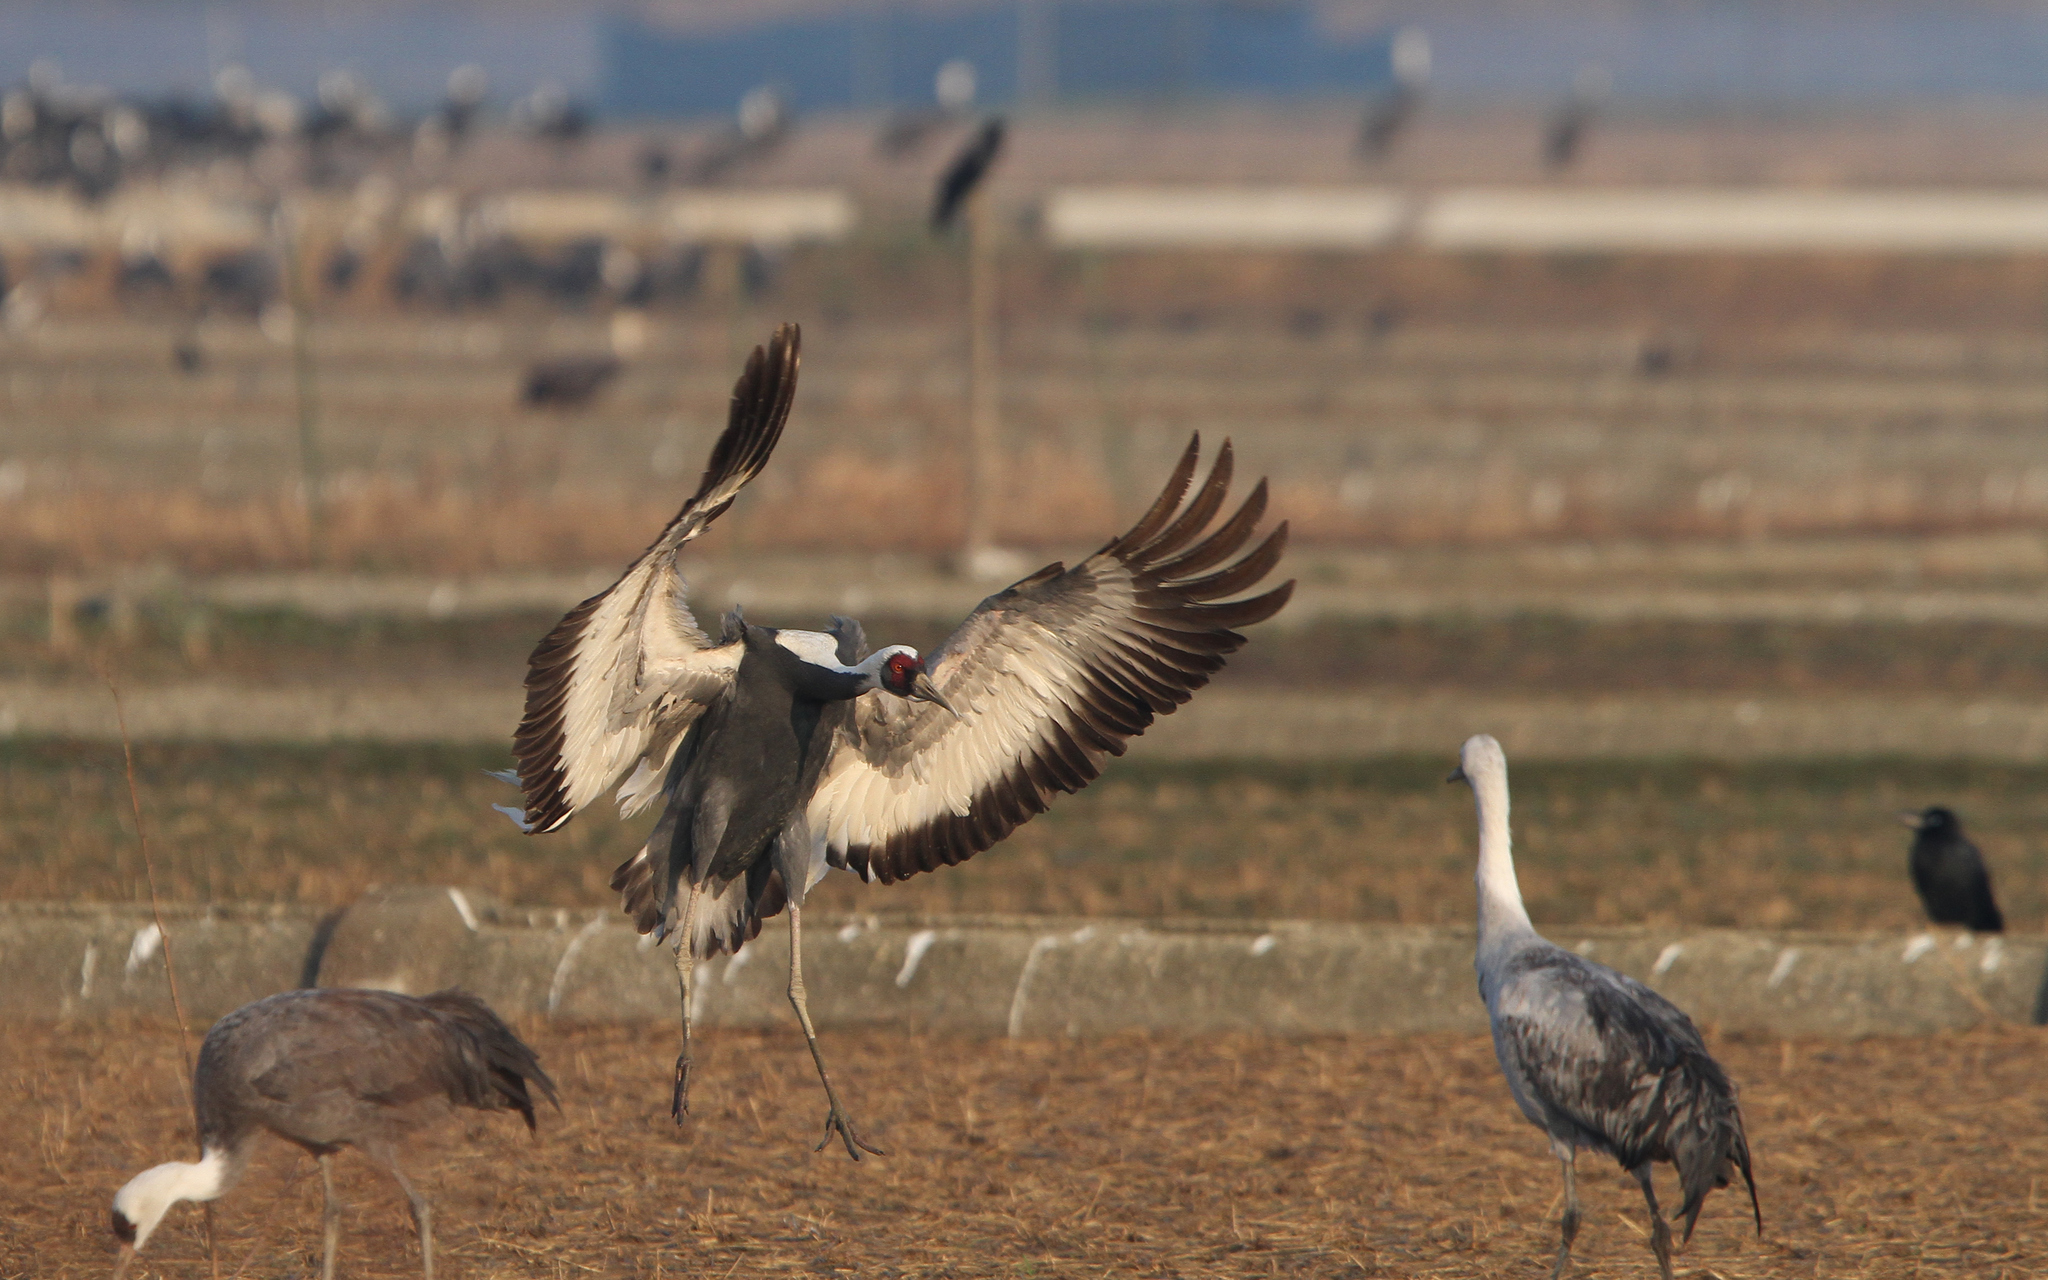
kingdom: Animalia
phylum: Chordata
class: Aves
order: Gruiformes
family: Gruidae
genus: Grus
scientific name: Grus vipio
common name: White-naped crane
